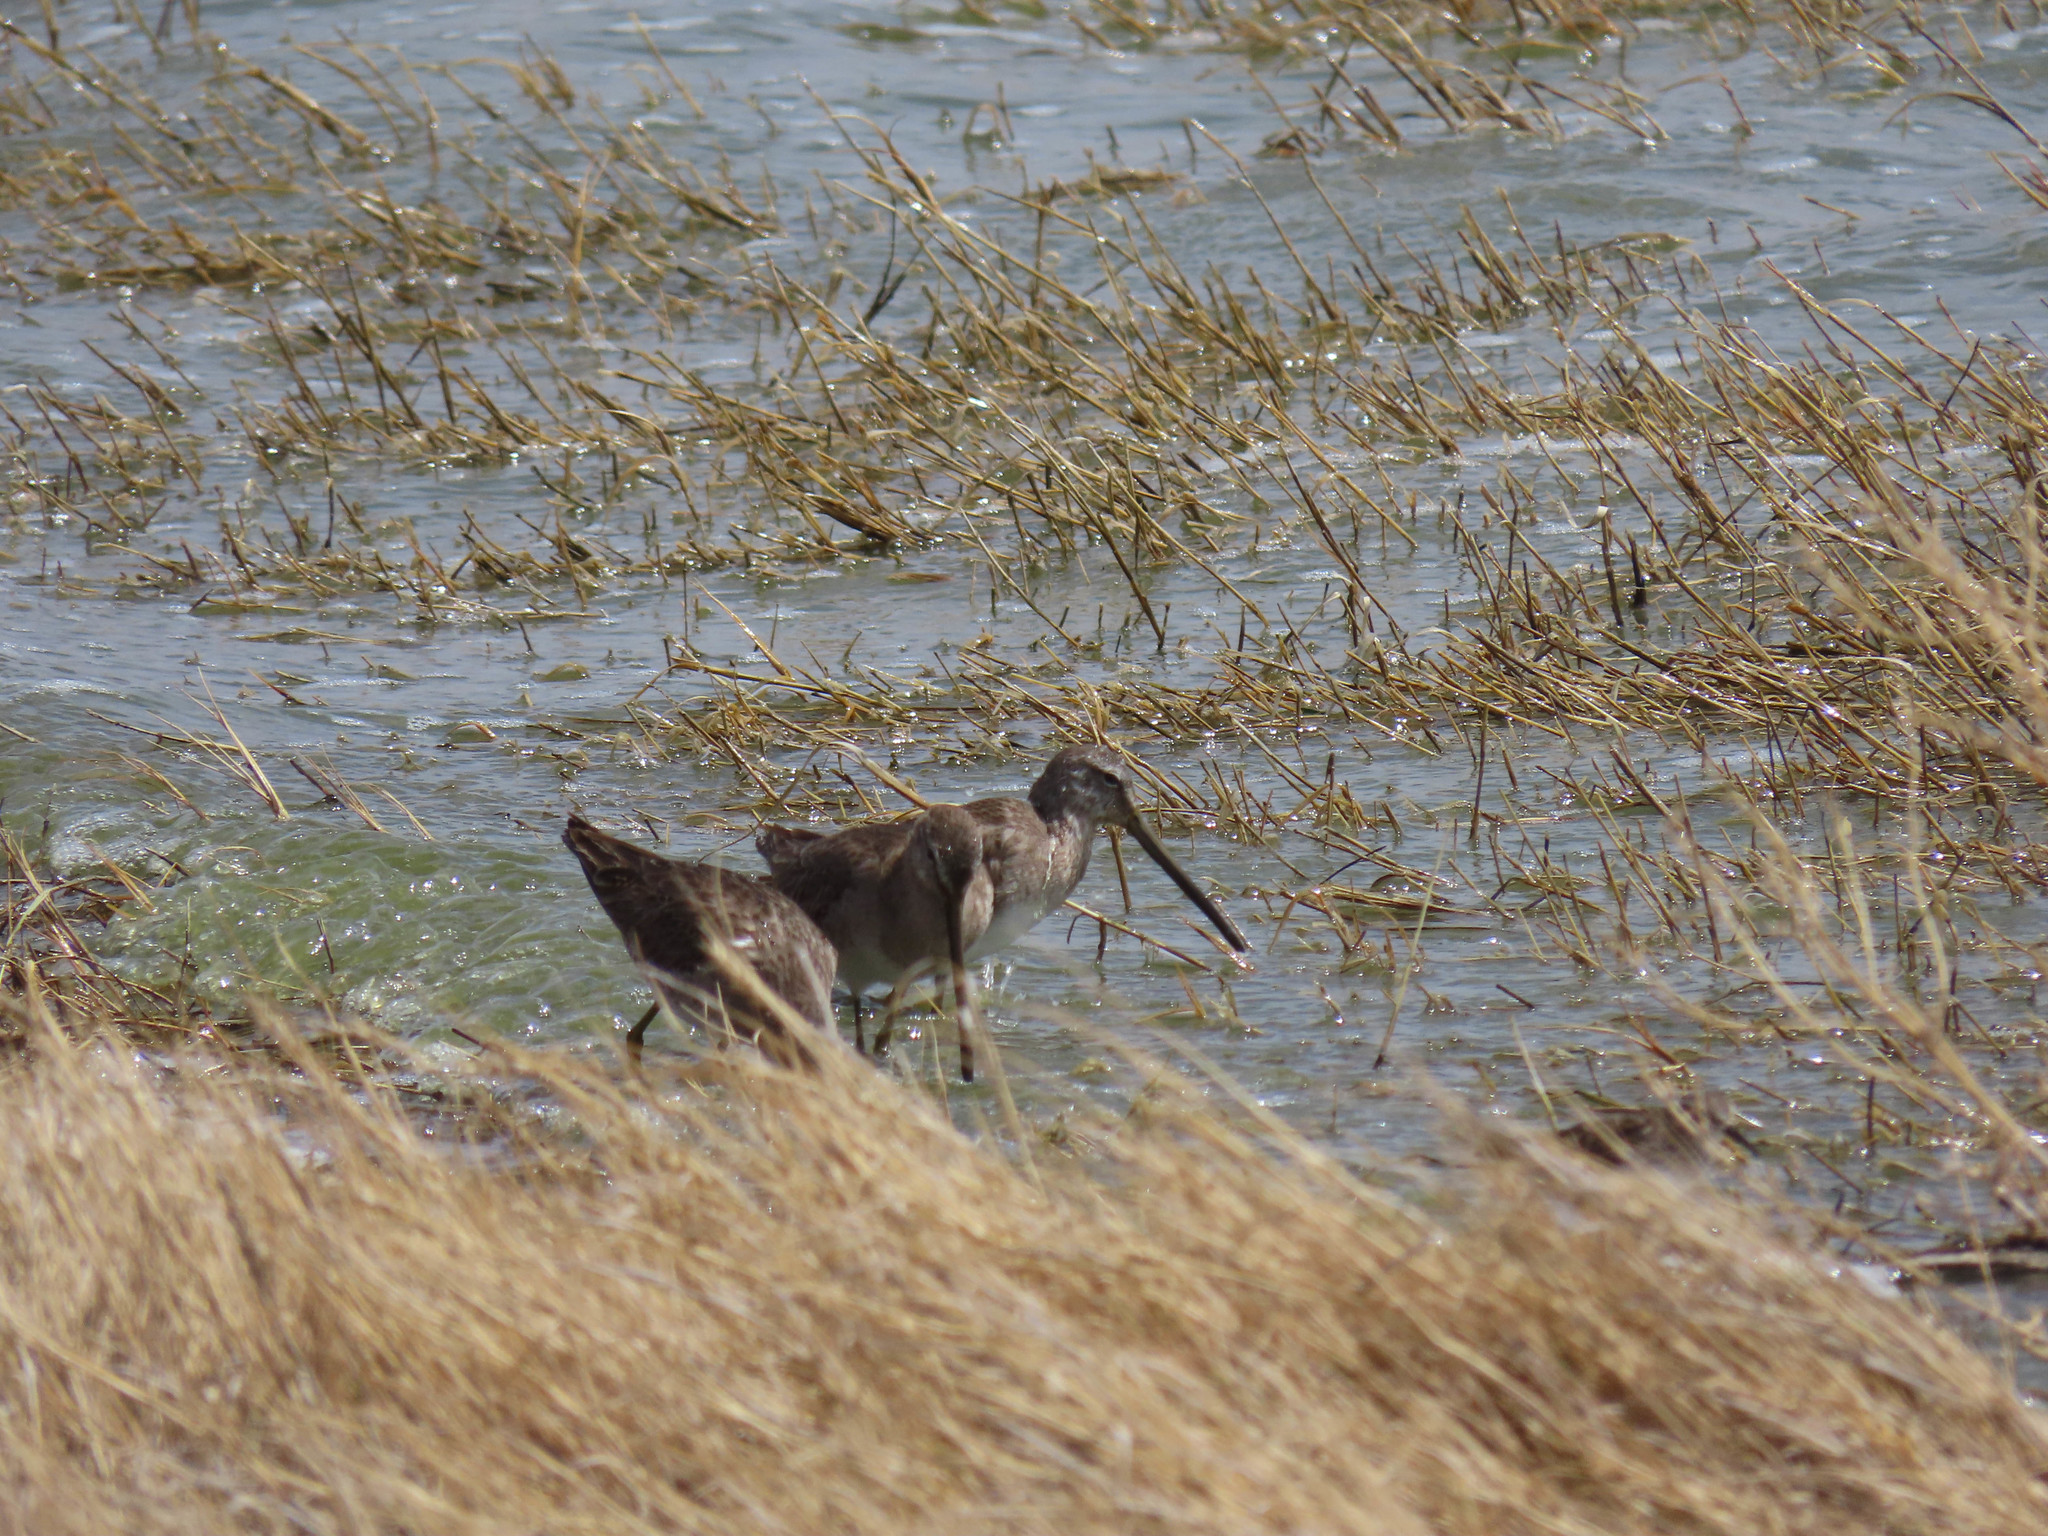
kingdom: Animalia
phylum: Chordata
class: Aves
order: Charadriiformes
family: Scolopacidae
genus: Limnodromus
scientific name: Limnodromus scolopaceus
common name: Long-billed dowitcher
